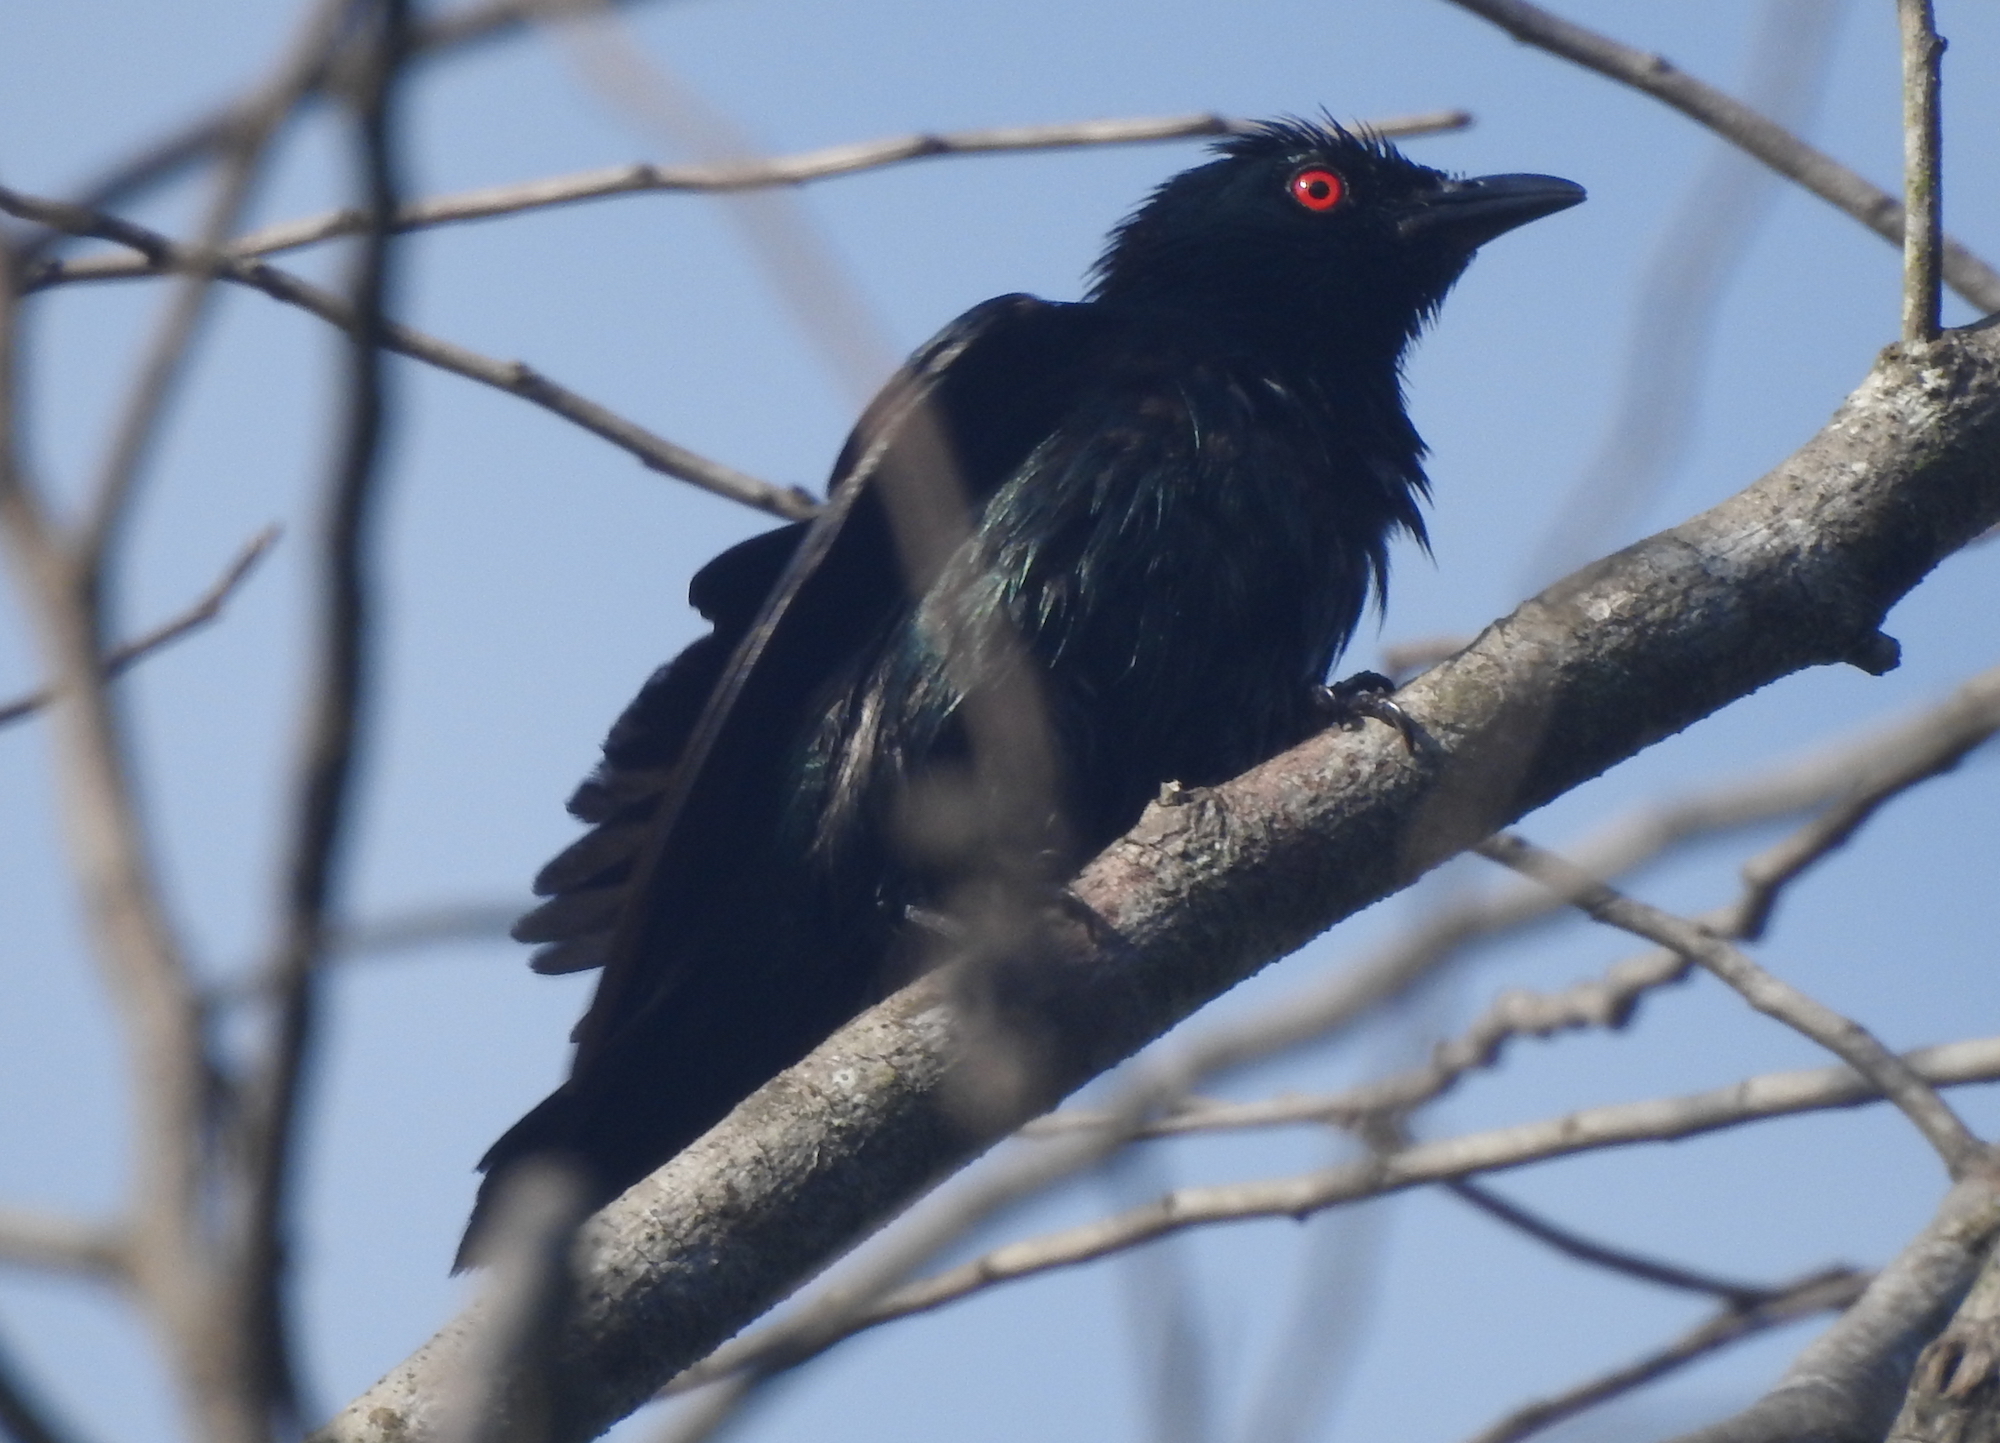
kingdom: Animalia
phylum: Chordata
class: Aves
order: Passeriformes
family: Sturnidae
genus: Aplonis
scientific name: Aplonis panayensis
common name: Asian glossy starling
